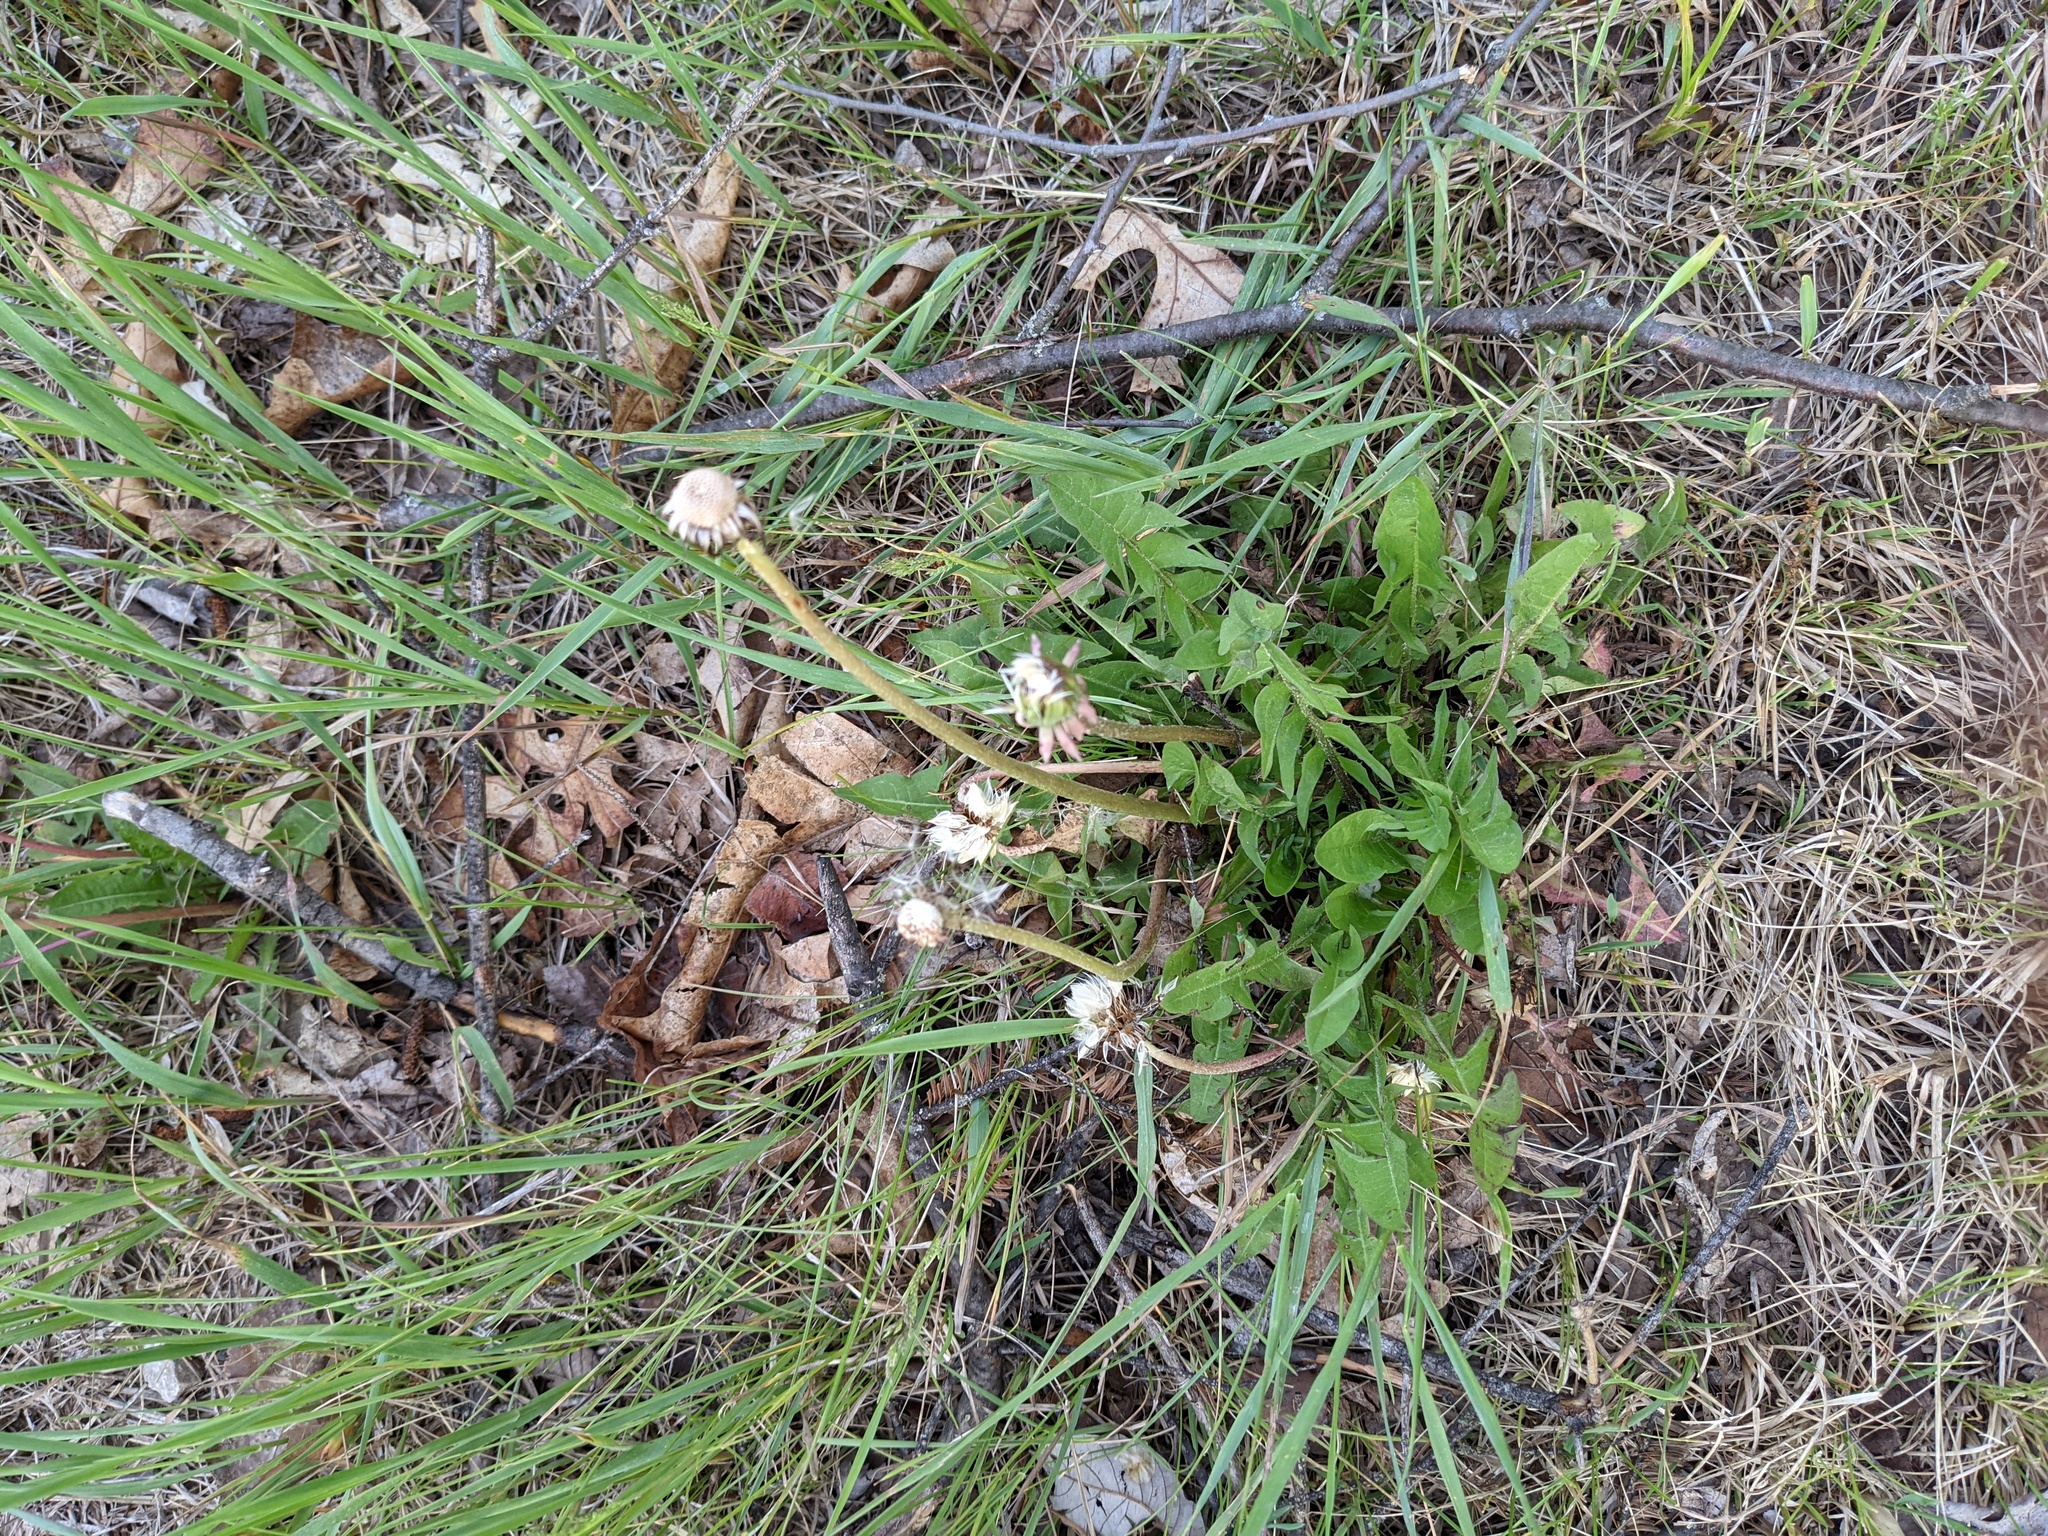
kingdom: Plantae
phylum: Tracheophyta
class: Magnoliopsida
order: Asterales
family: Asteraceae
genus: Taraxacum
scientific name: Taraxacum
